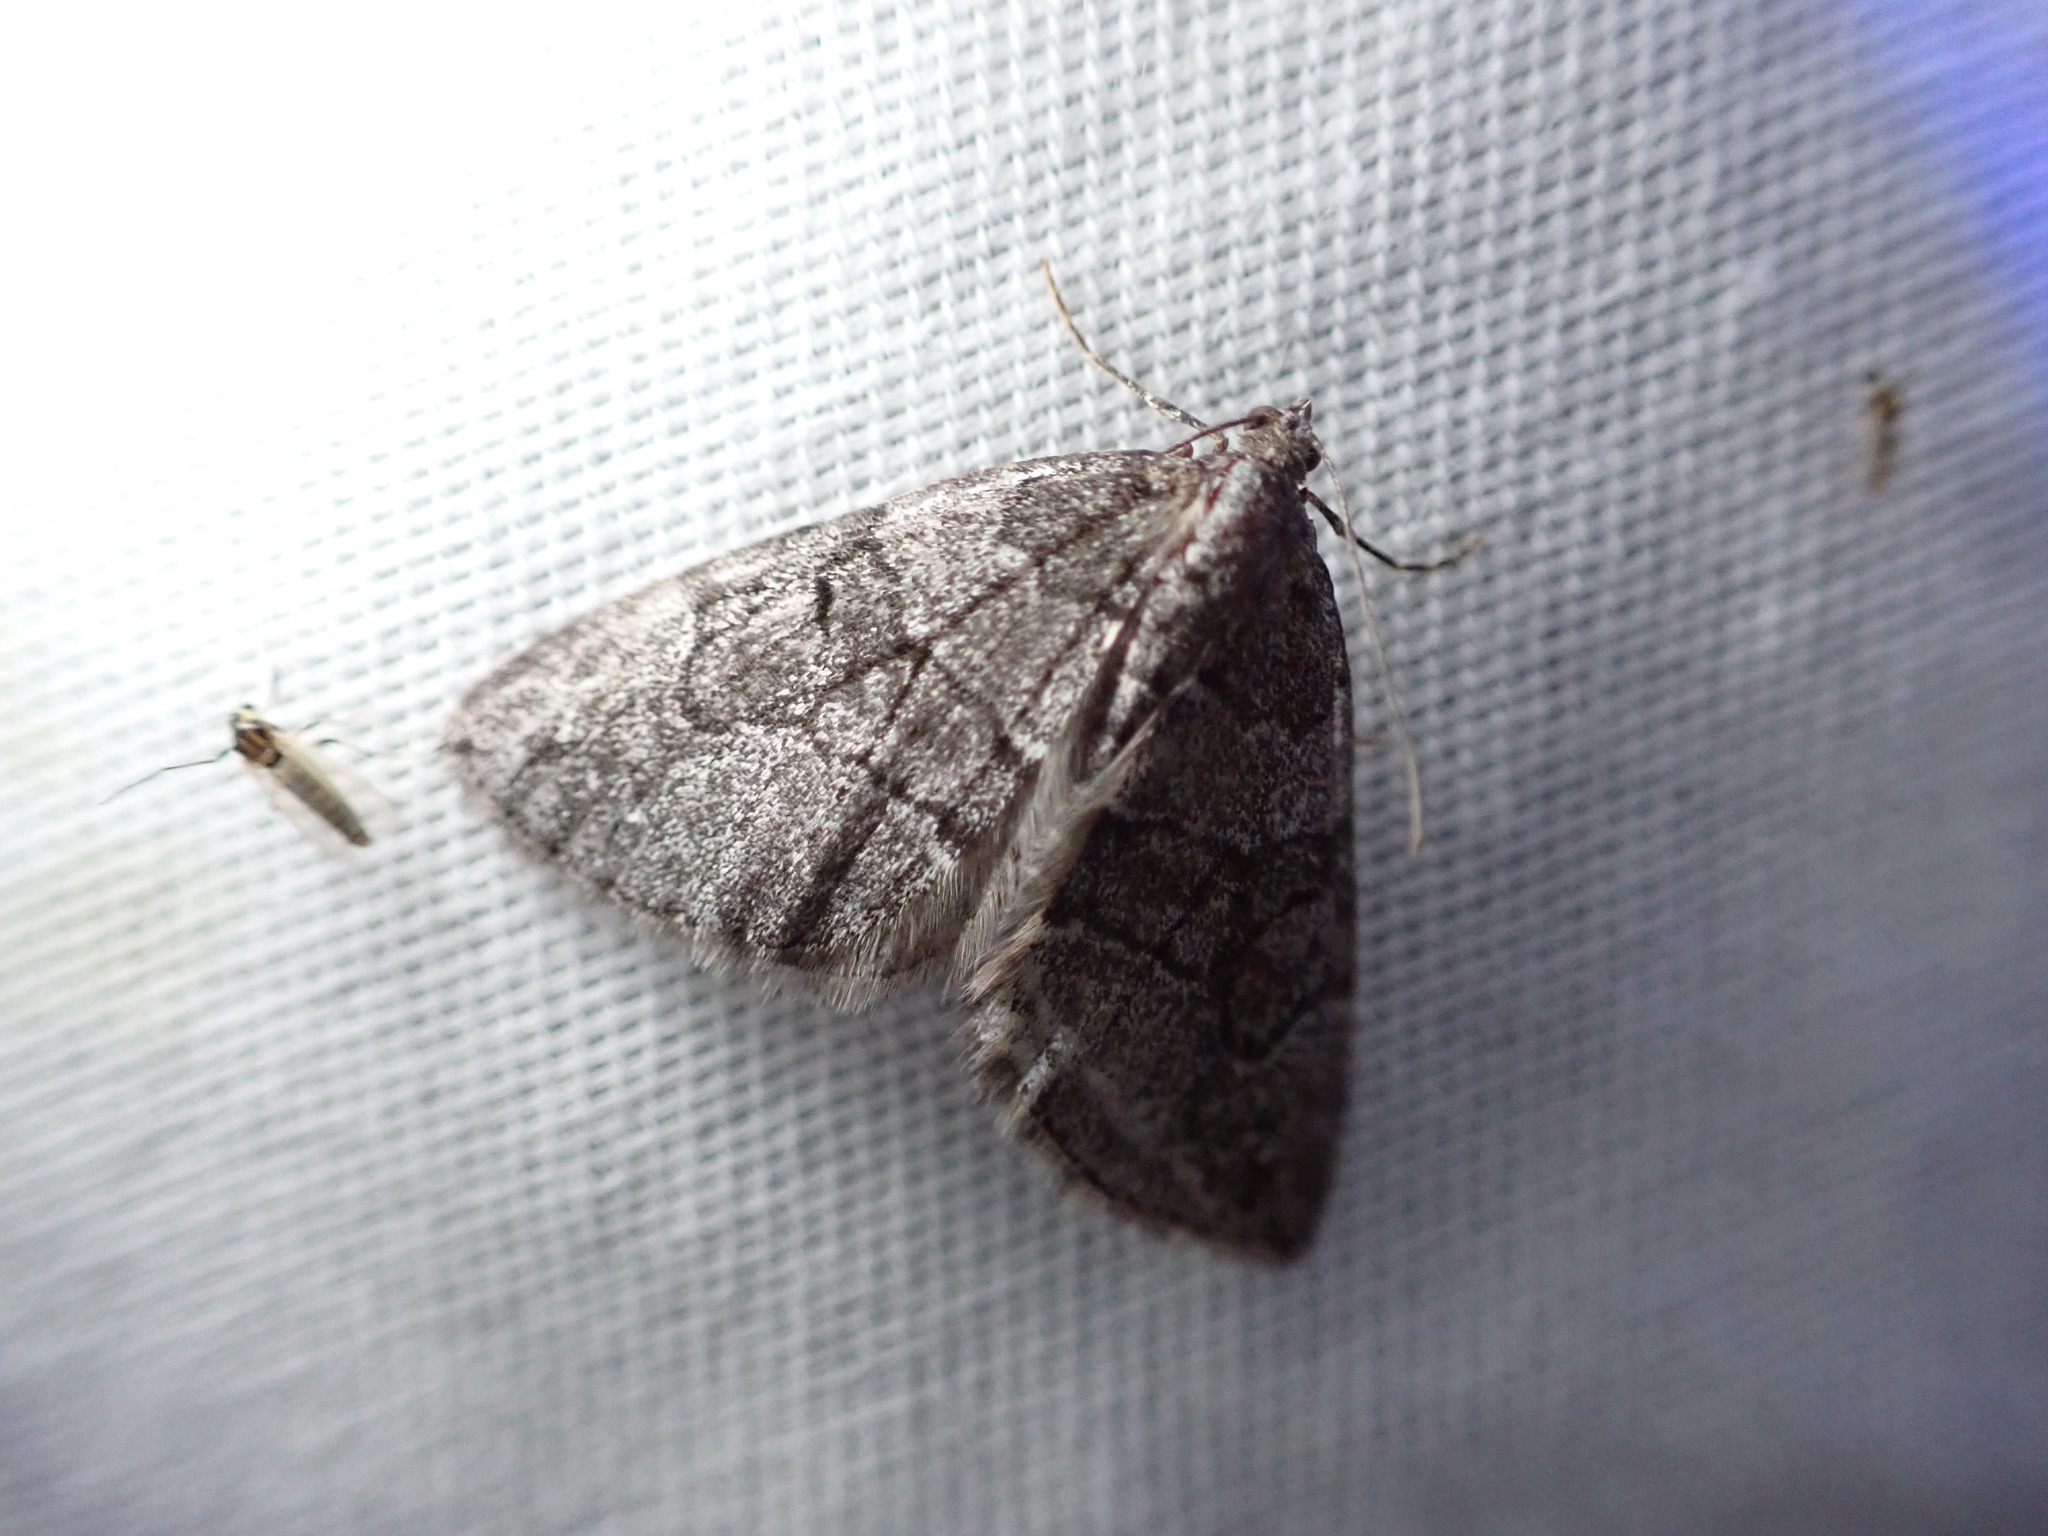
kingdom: Animalia
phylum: Arthropoda
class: Insecta
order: Lepidoptera
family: Geometridae
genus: Thera
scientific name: Thera otisi
